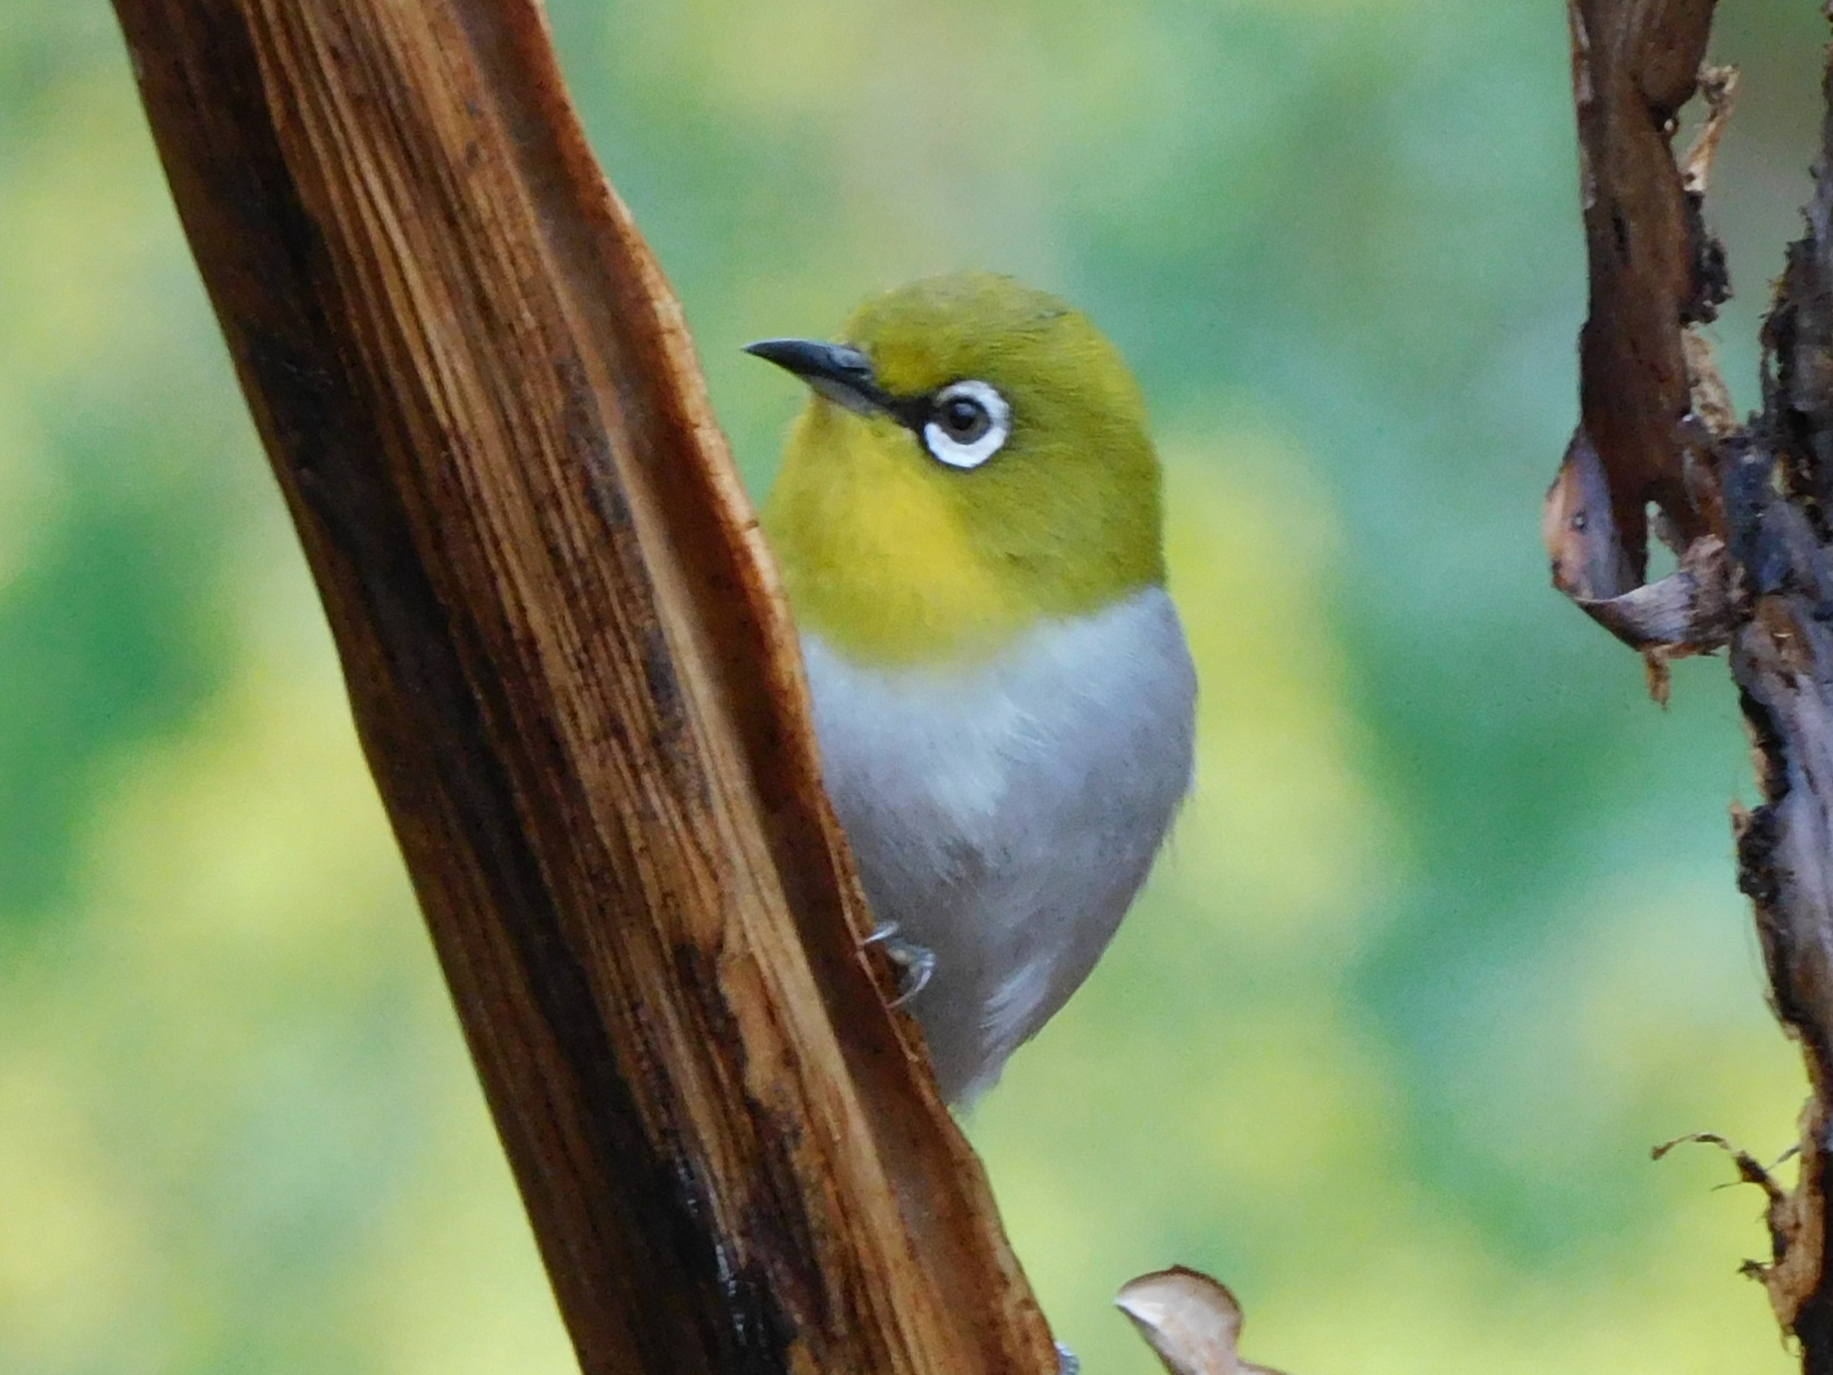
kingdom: Animalia
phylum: Chordata
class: Aves
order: Passeriformes
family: Zosteropidae
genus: Zosterops
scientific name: Zosterops palpebrosus
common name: Oriental white-eye
